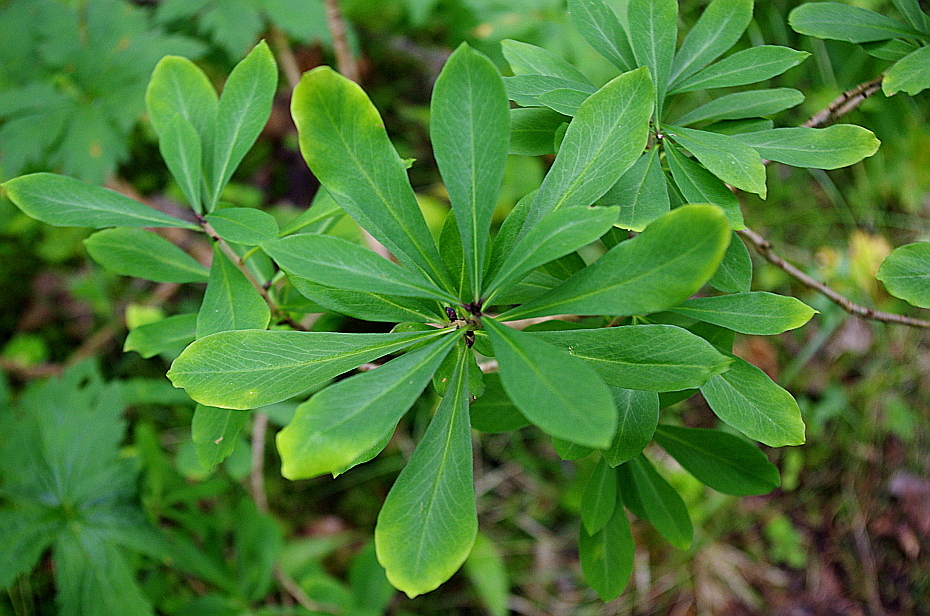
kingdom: Plantae
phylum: Tracheophyta
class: Magnoliopsida
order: Malvales
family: Thymelaeaceae
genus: Daphne
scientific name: Daphne mezereum
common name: Mezereon
